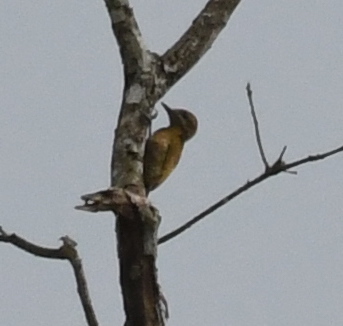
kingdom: Animalia
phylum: Chordata
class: Aves
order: Piciformes
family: Picidae
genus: Veniliornis
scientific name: Veniliornis passerinus
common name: Little woodpecker
